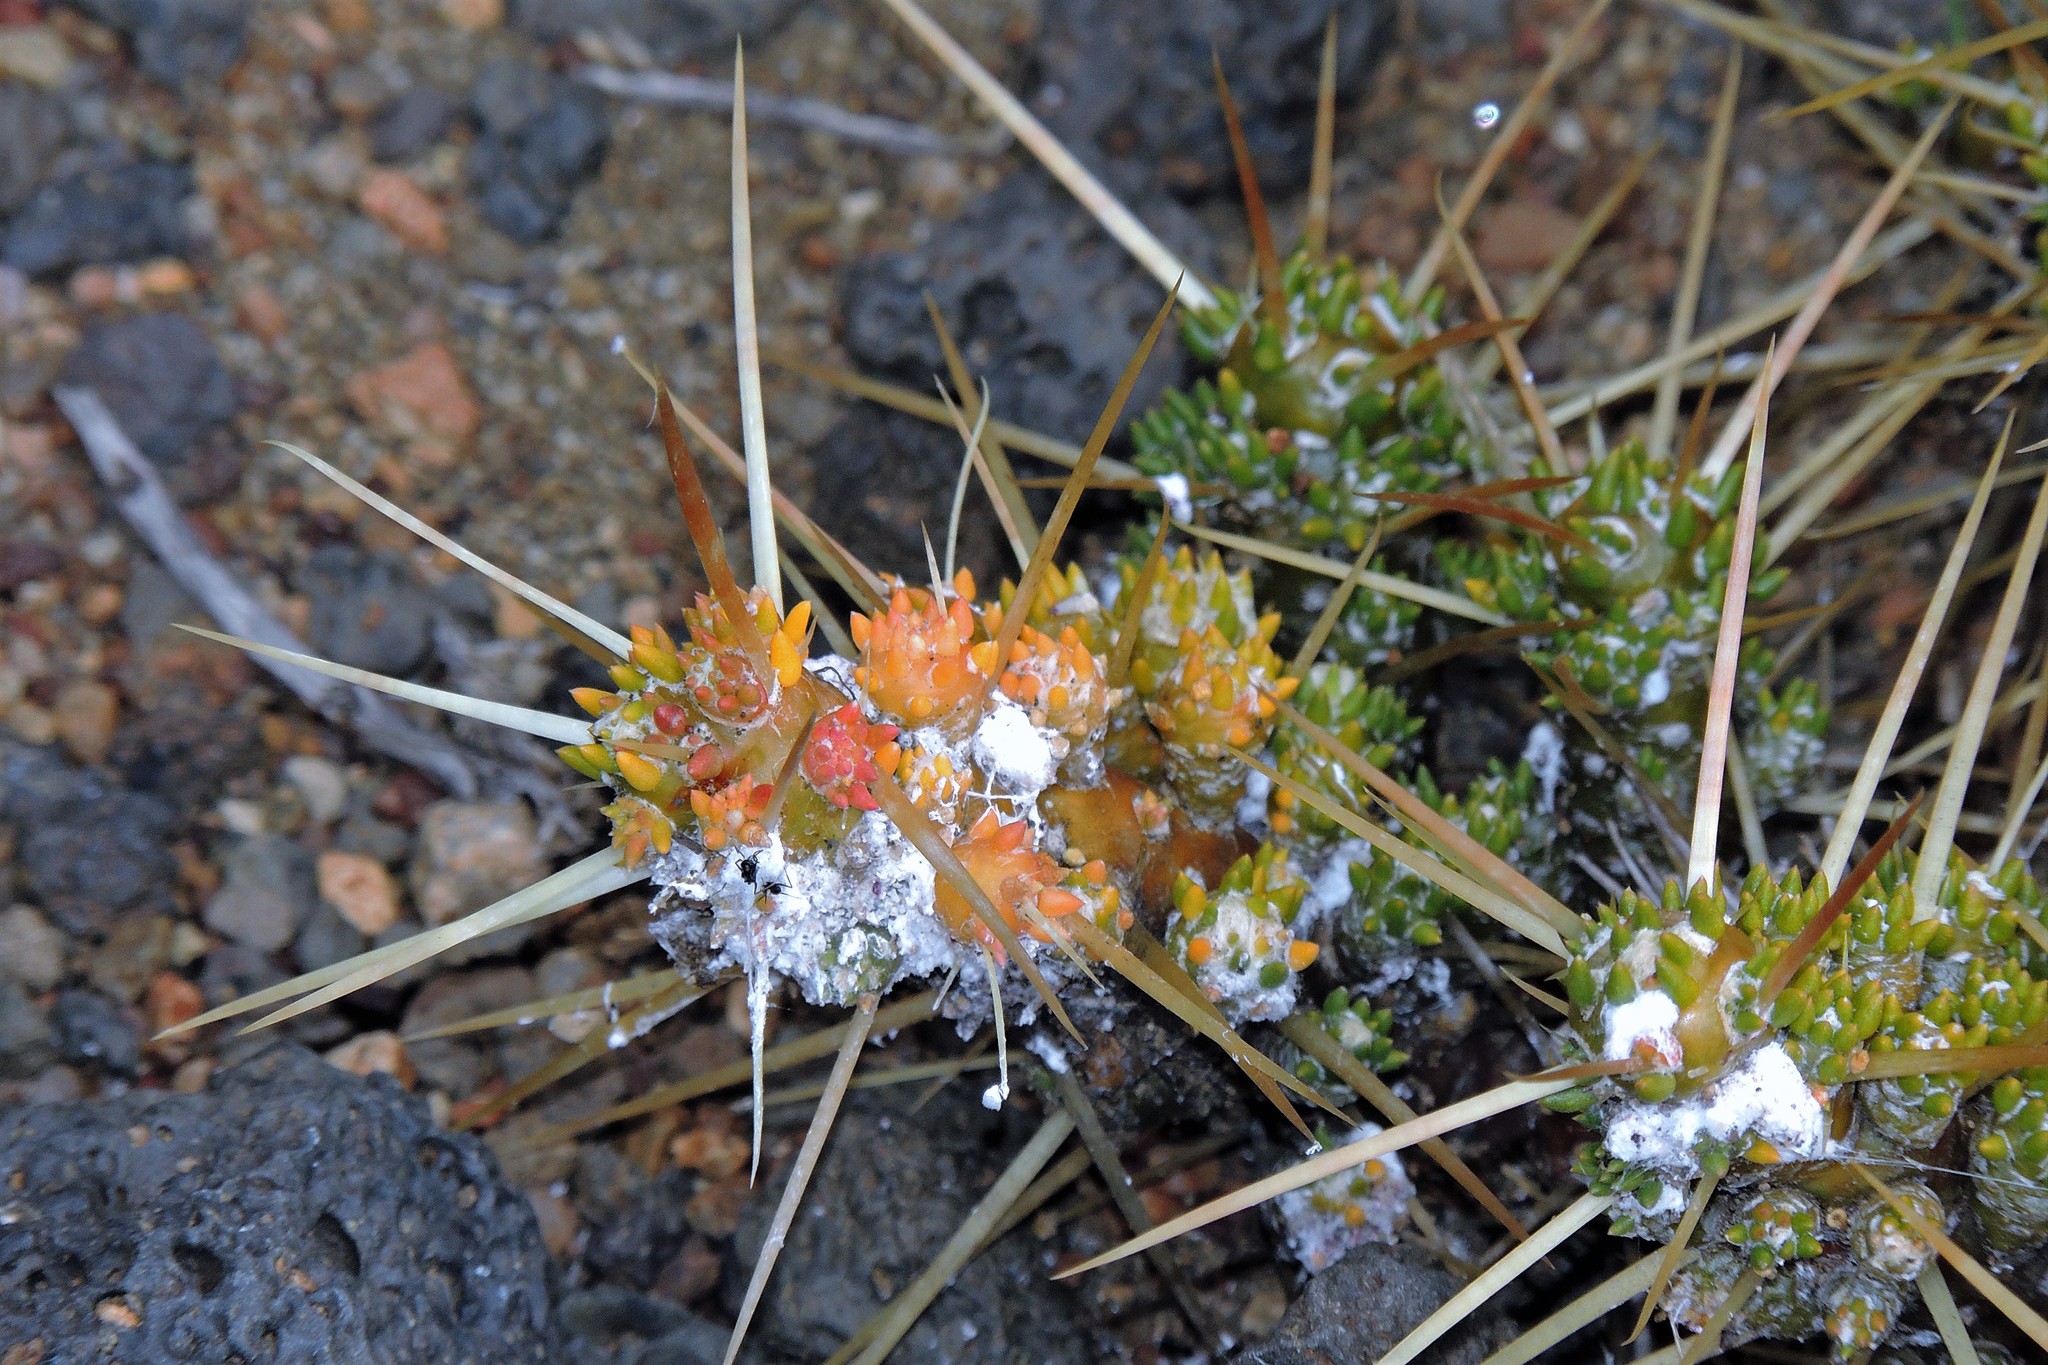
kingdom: Plantae
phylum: Tracheophyta
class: Magnoliopsida
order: Caryophyllales
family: Cactaceae
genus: Maihuenia
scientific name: Maihuenia patagonica
